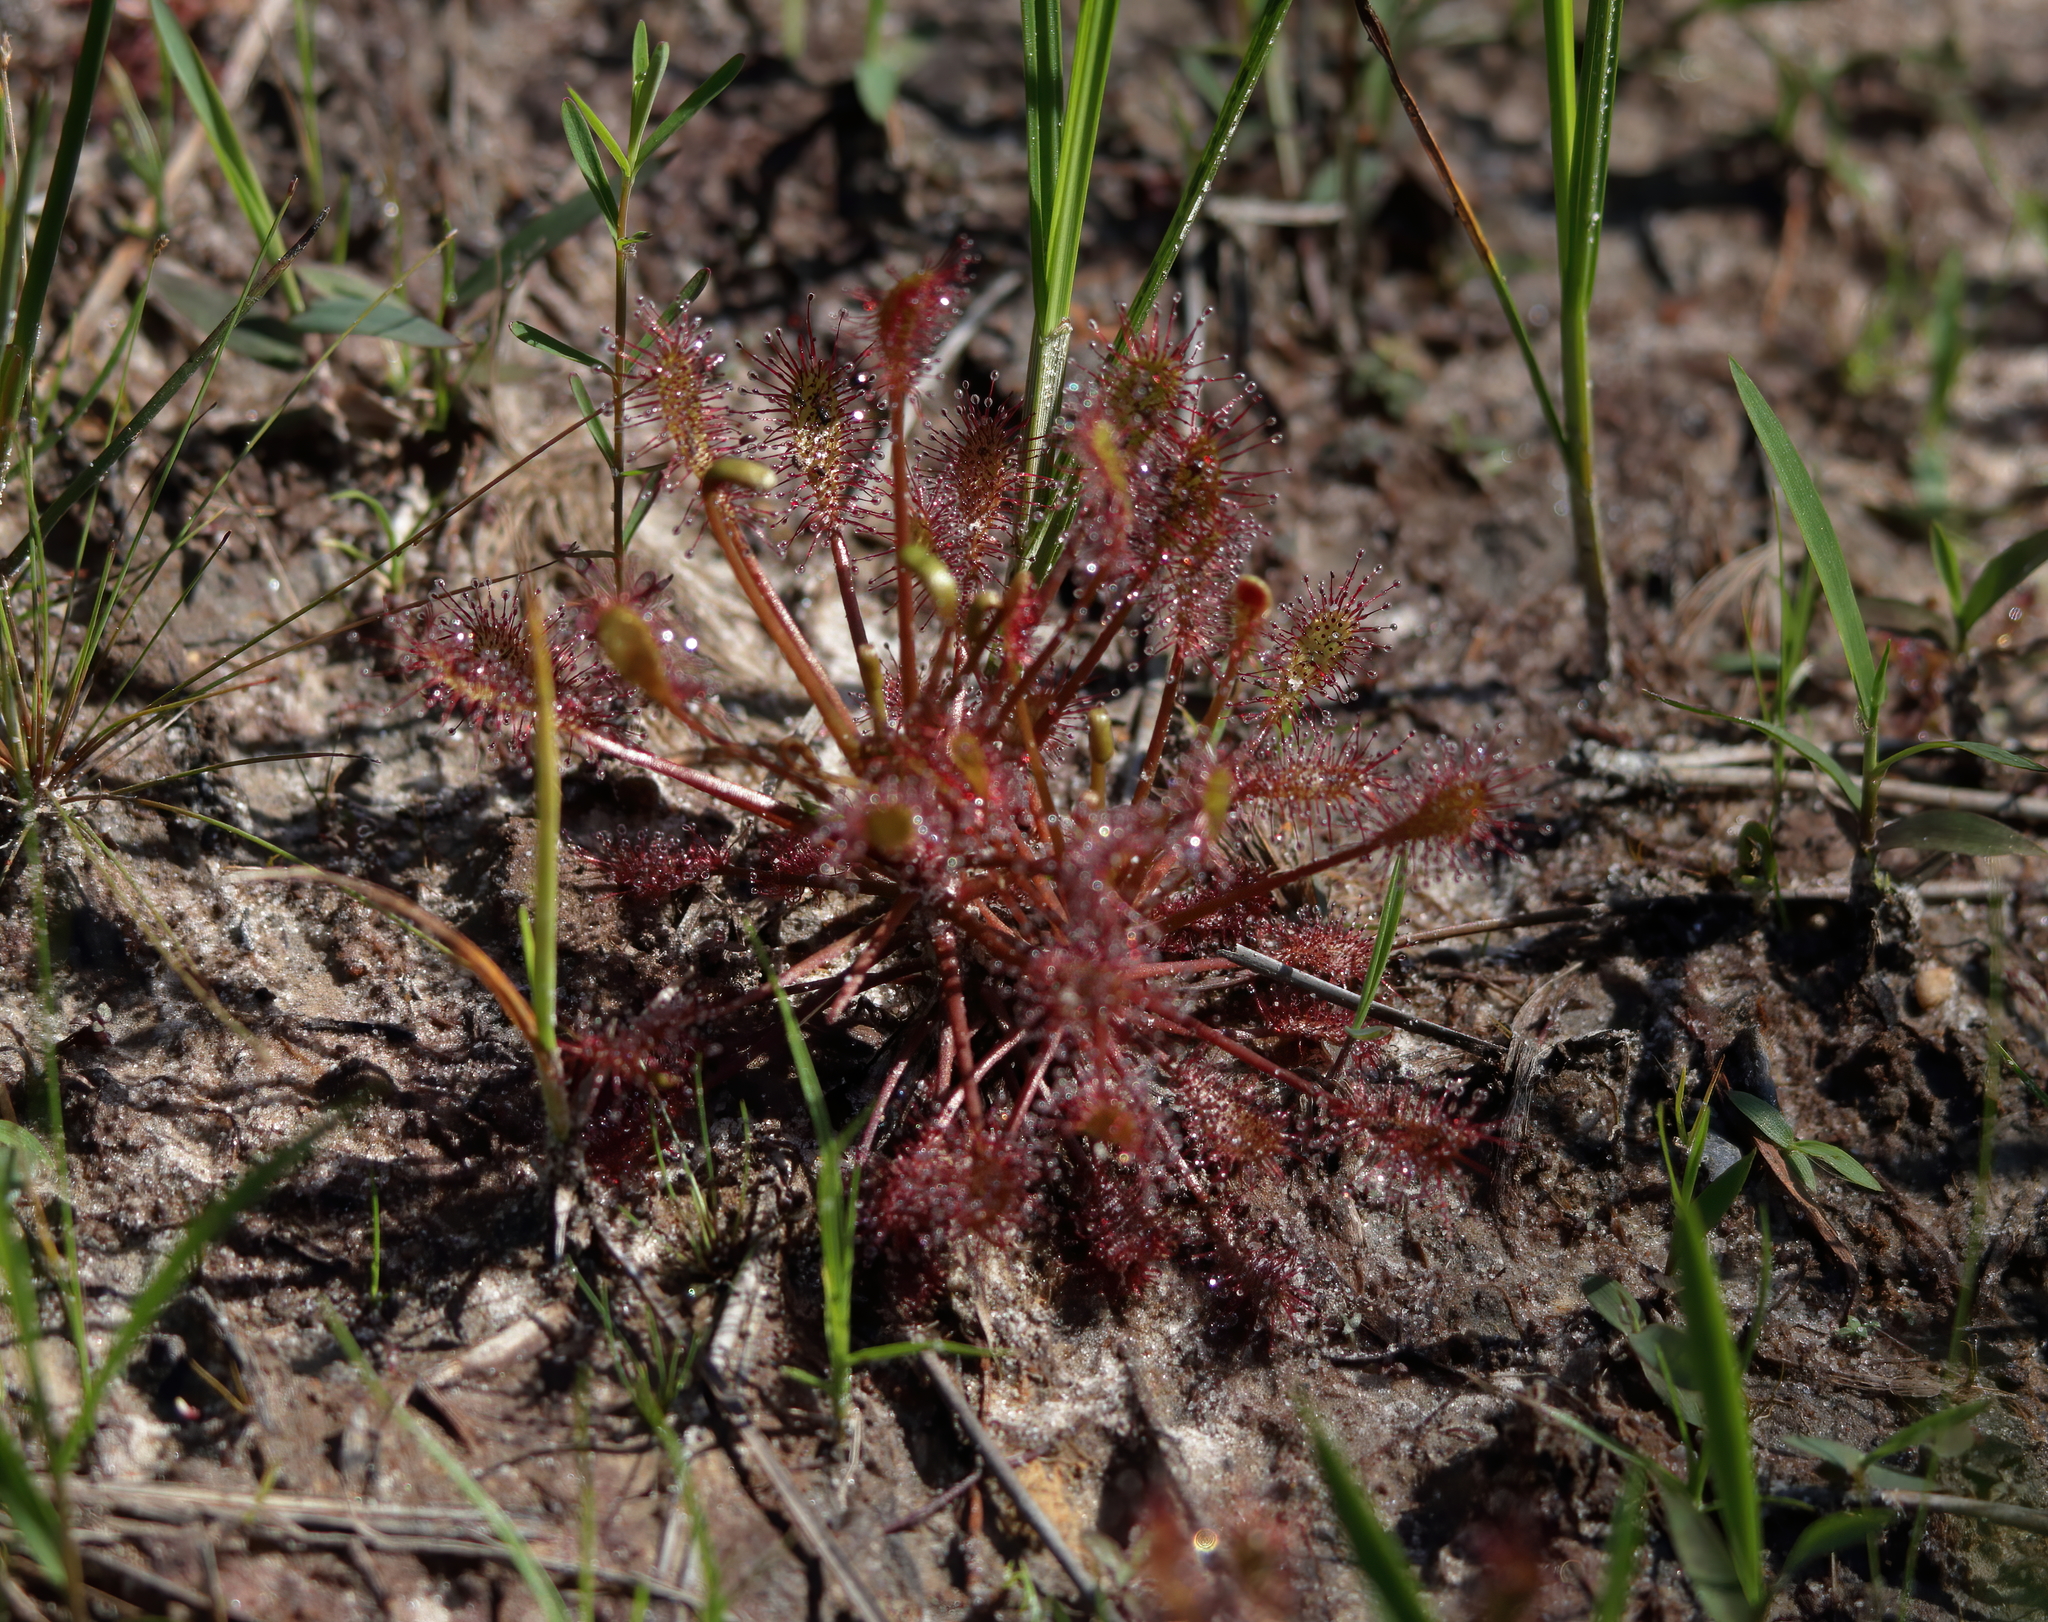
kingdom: Plantae
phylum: Tracheophyta
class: Magnoliopsida
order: Caryophyllales
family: Droseraceae
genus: Drosera
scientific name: Drosera intermedia
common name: Oblong-leaved sundew
